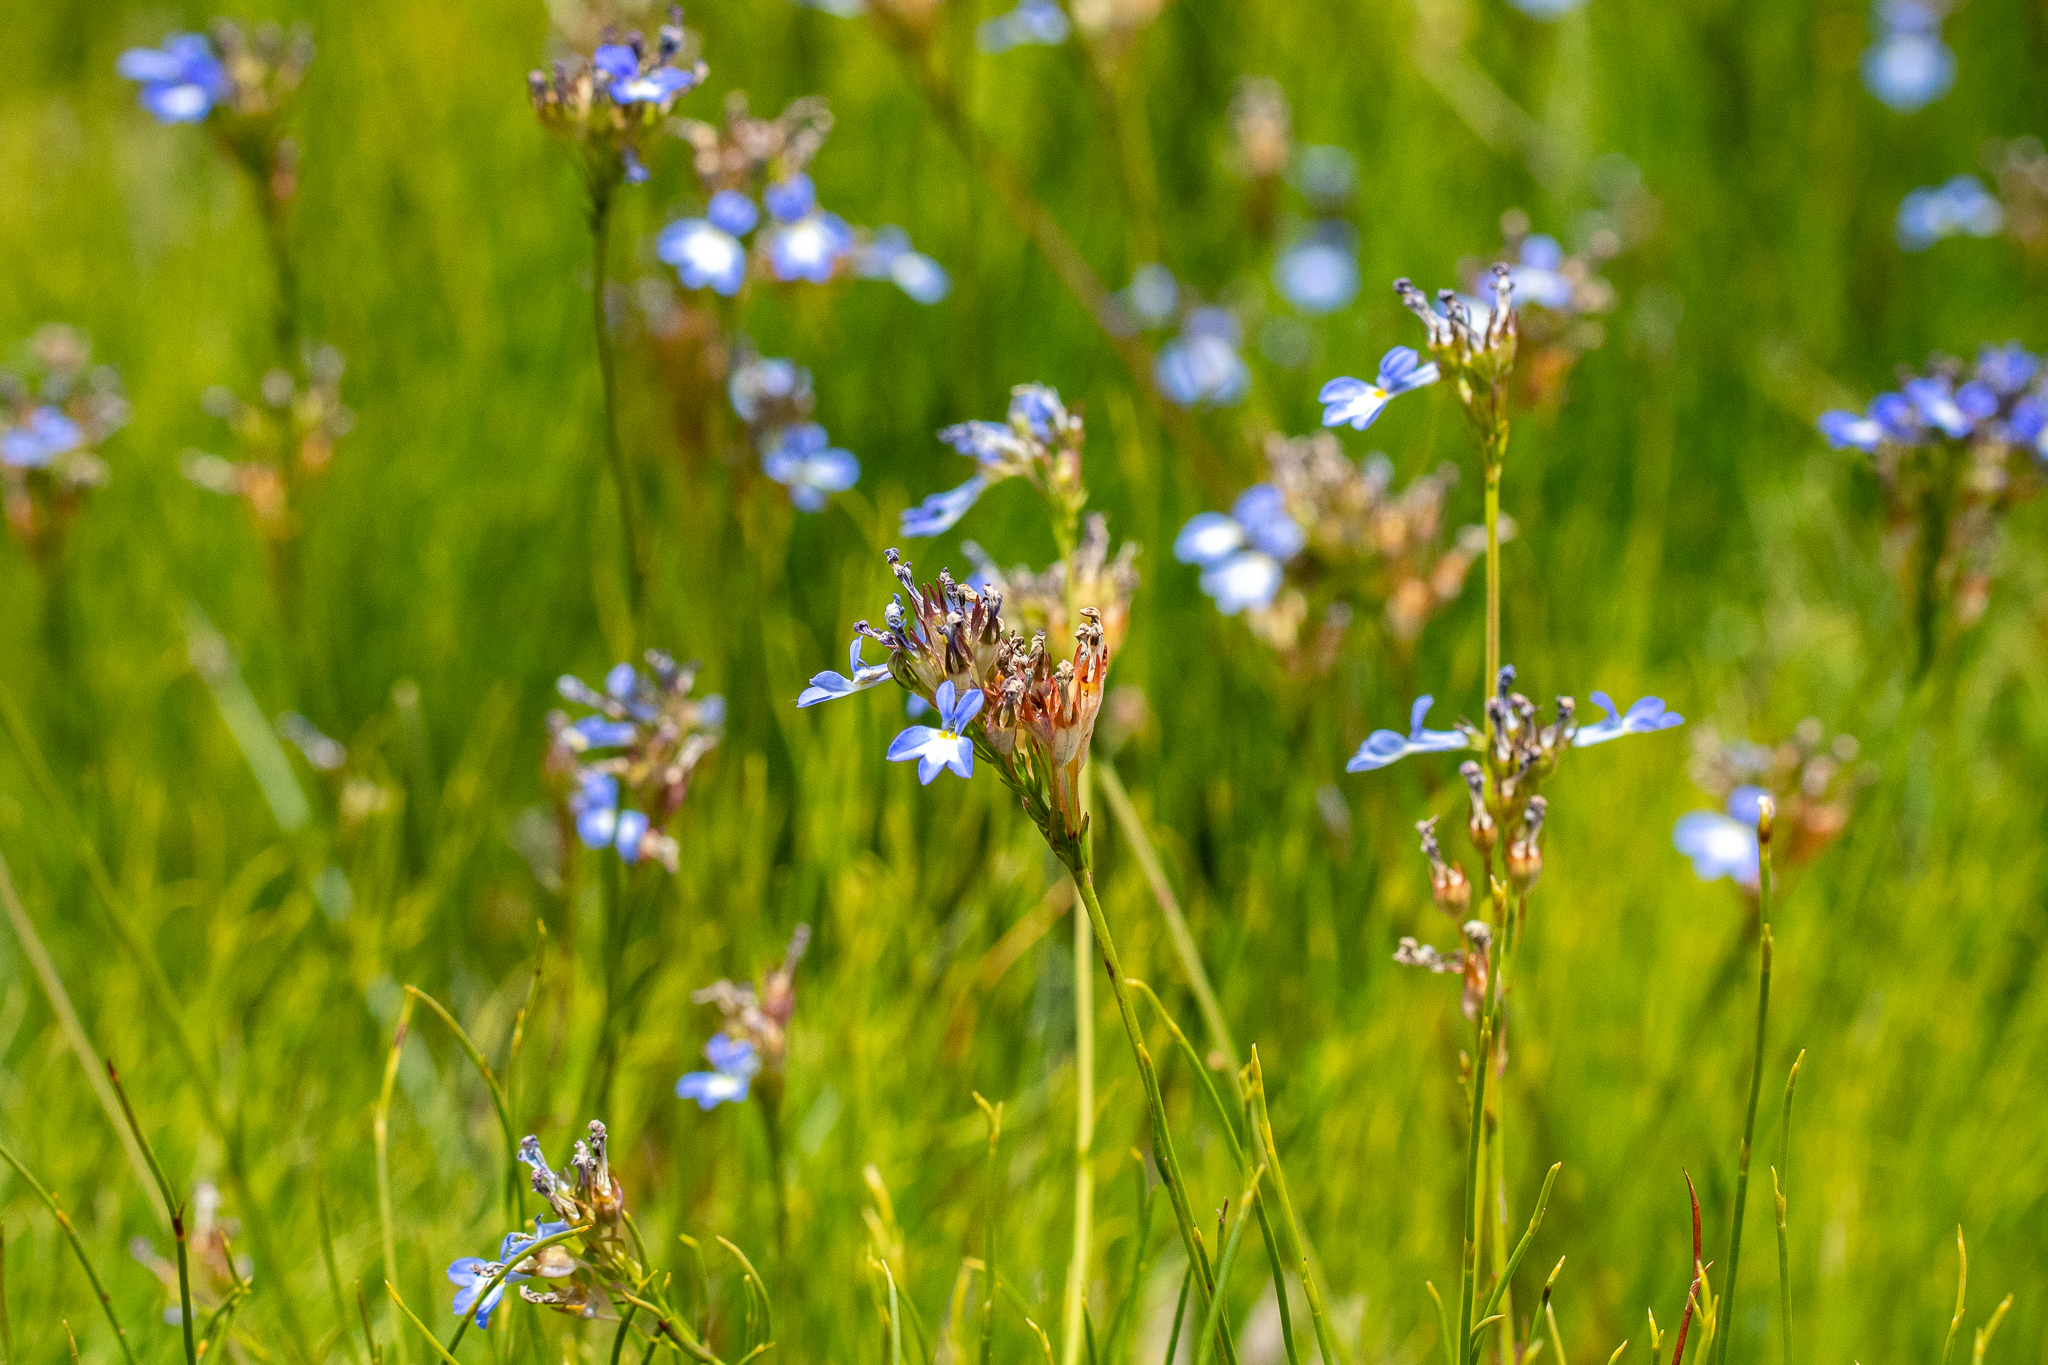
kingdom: Plantae
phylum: Tracheophyta
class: Magnoliopsida
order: Asterales
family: Campanulaceae
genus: Lobelia
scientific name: Lobelia comosa
